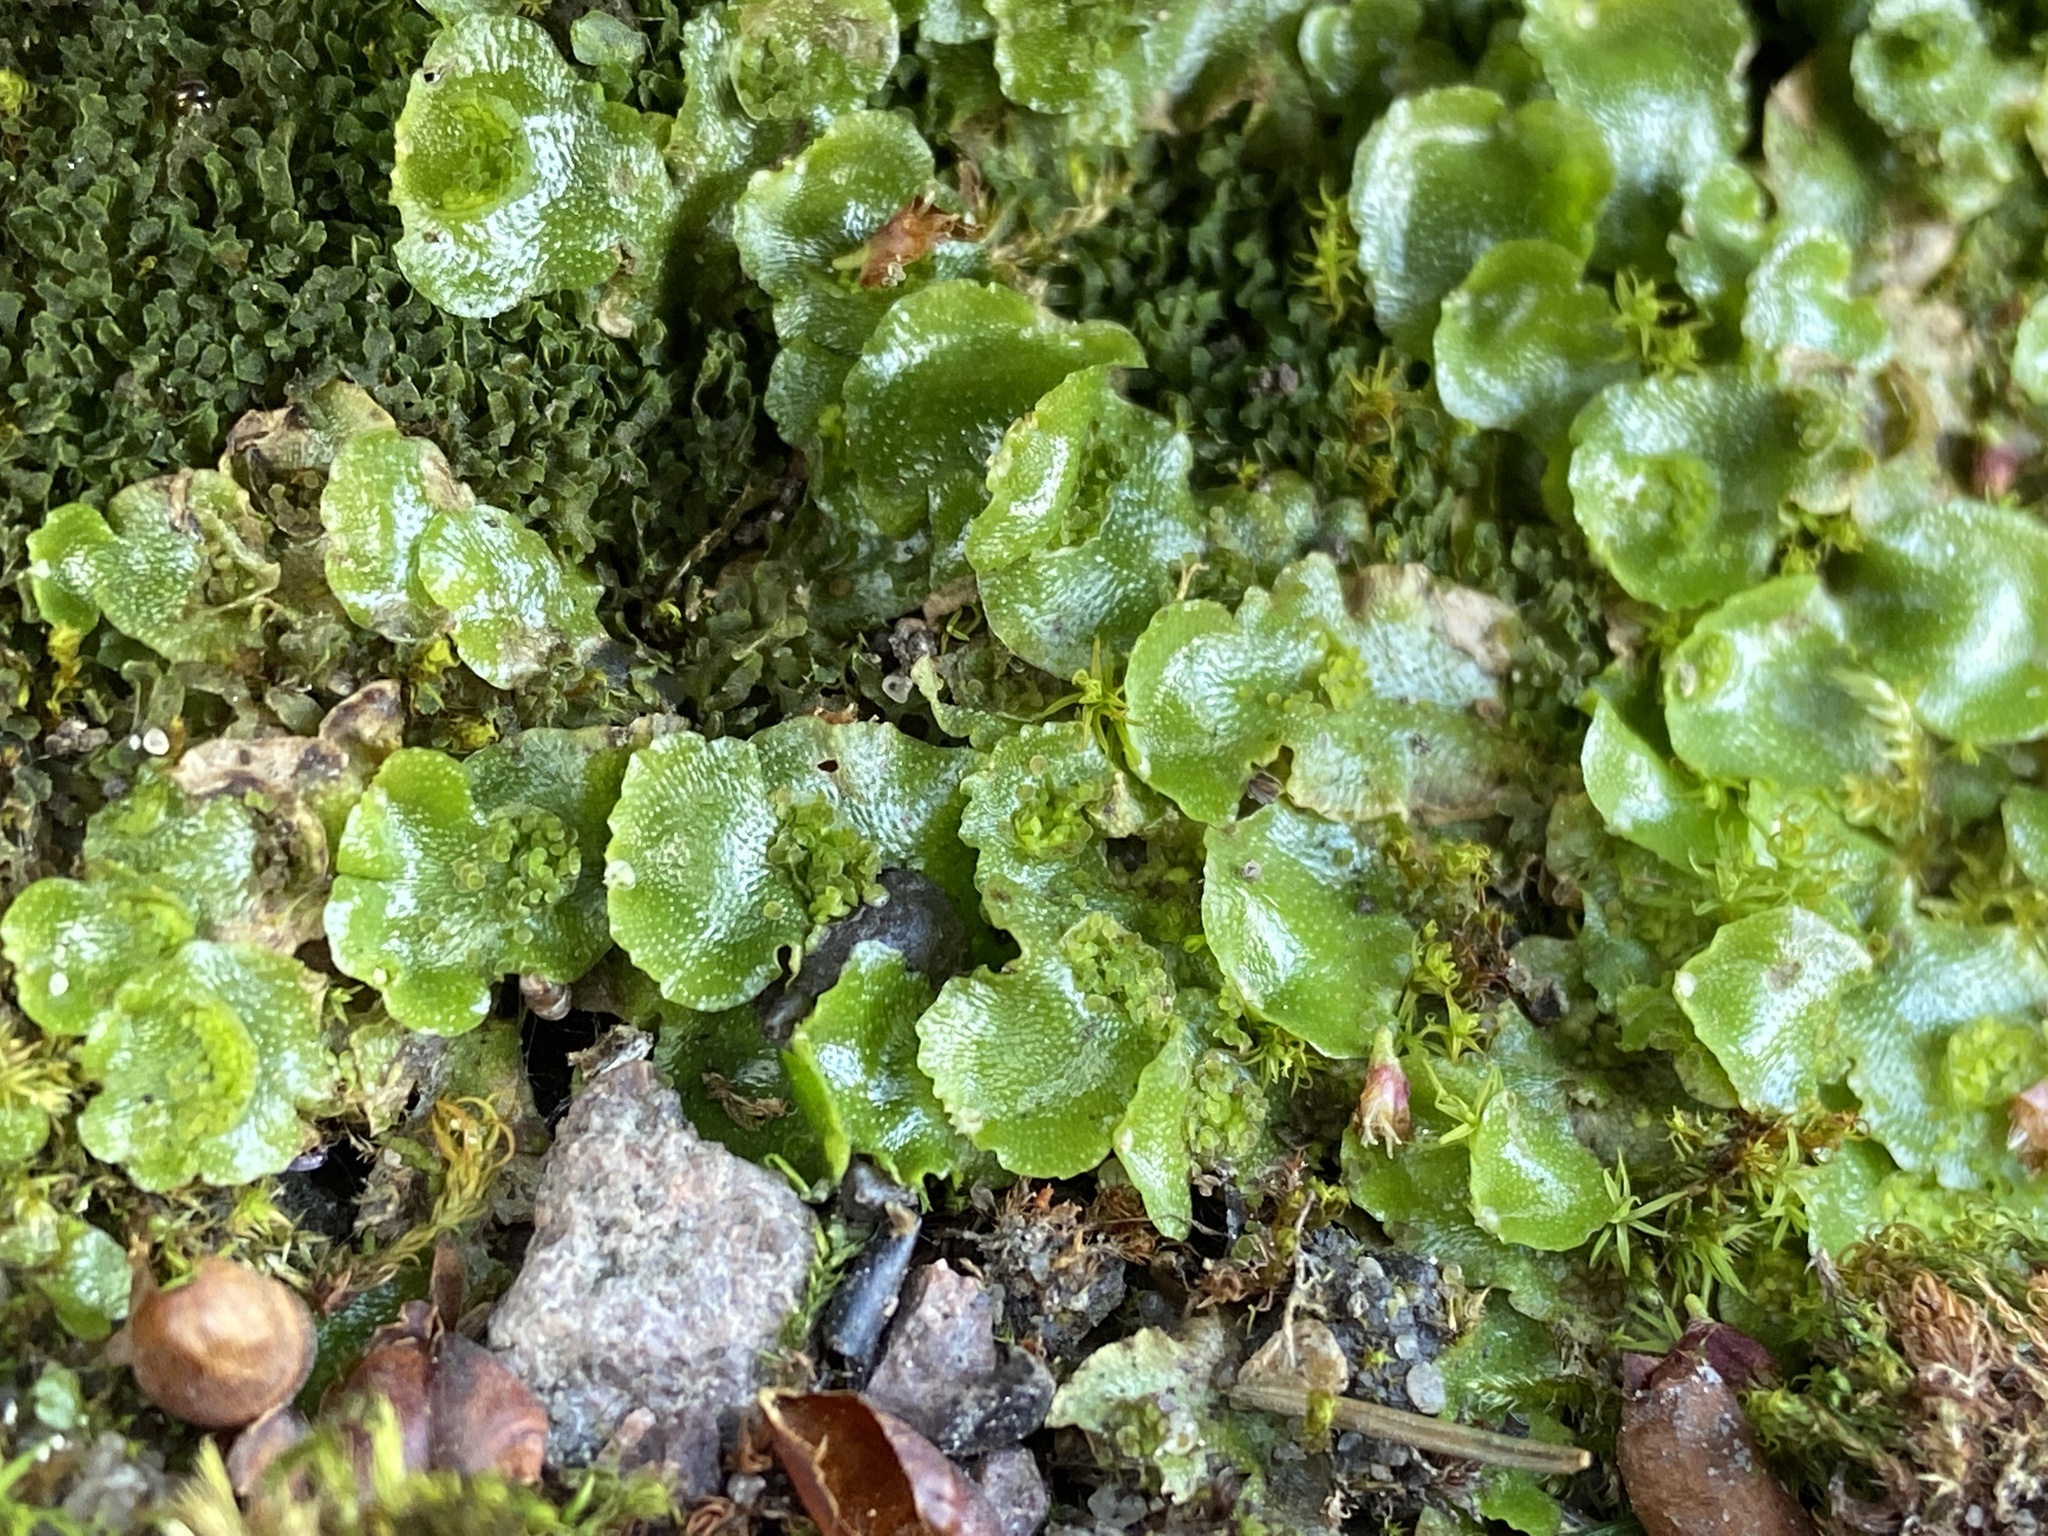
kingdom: Plantae
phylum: Marchantiophyta
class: Marchantiopsida
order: Lunulariales
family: Lunulariaceae
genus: Lunularia
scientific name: Lunularia cruciata
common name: Crescent-cup liverwort
